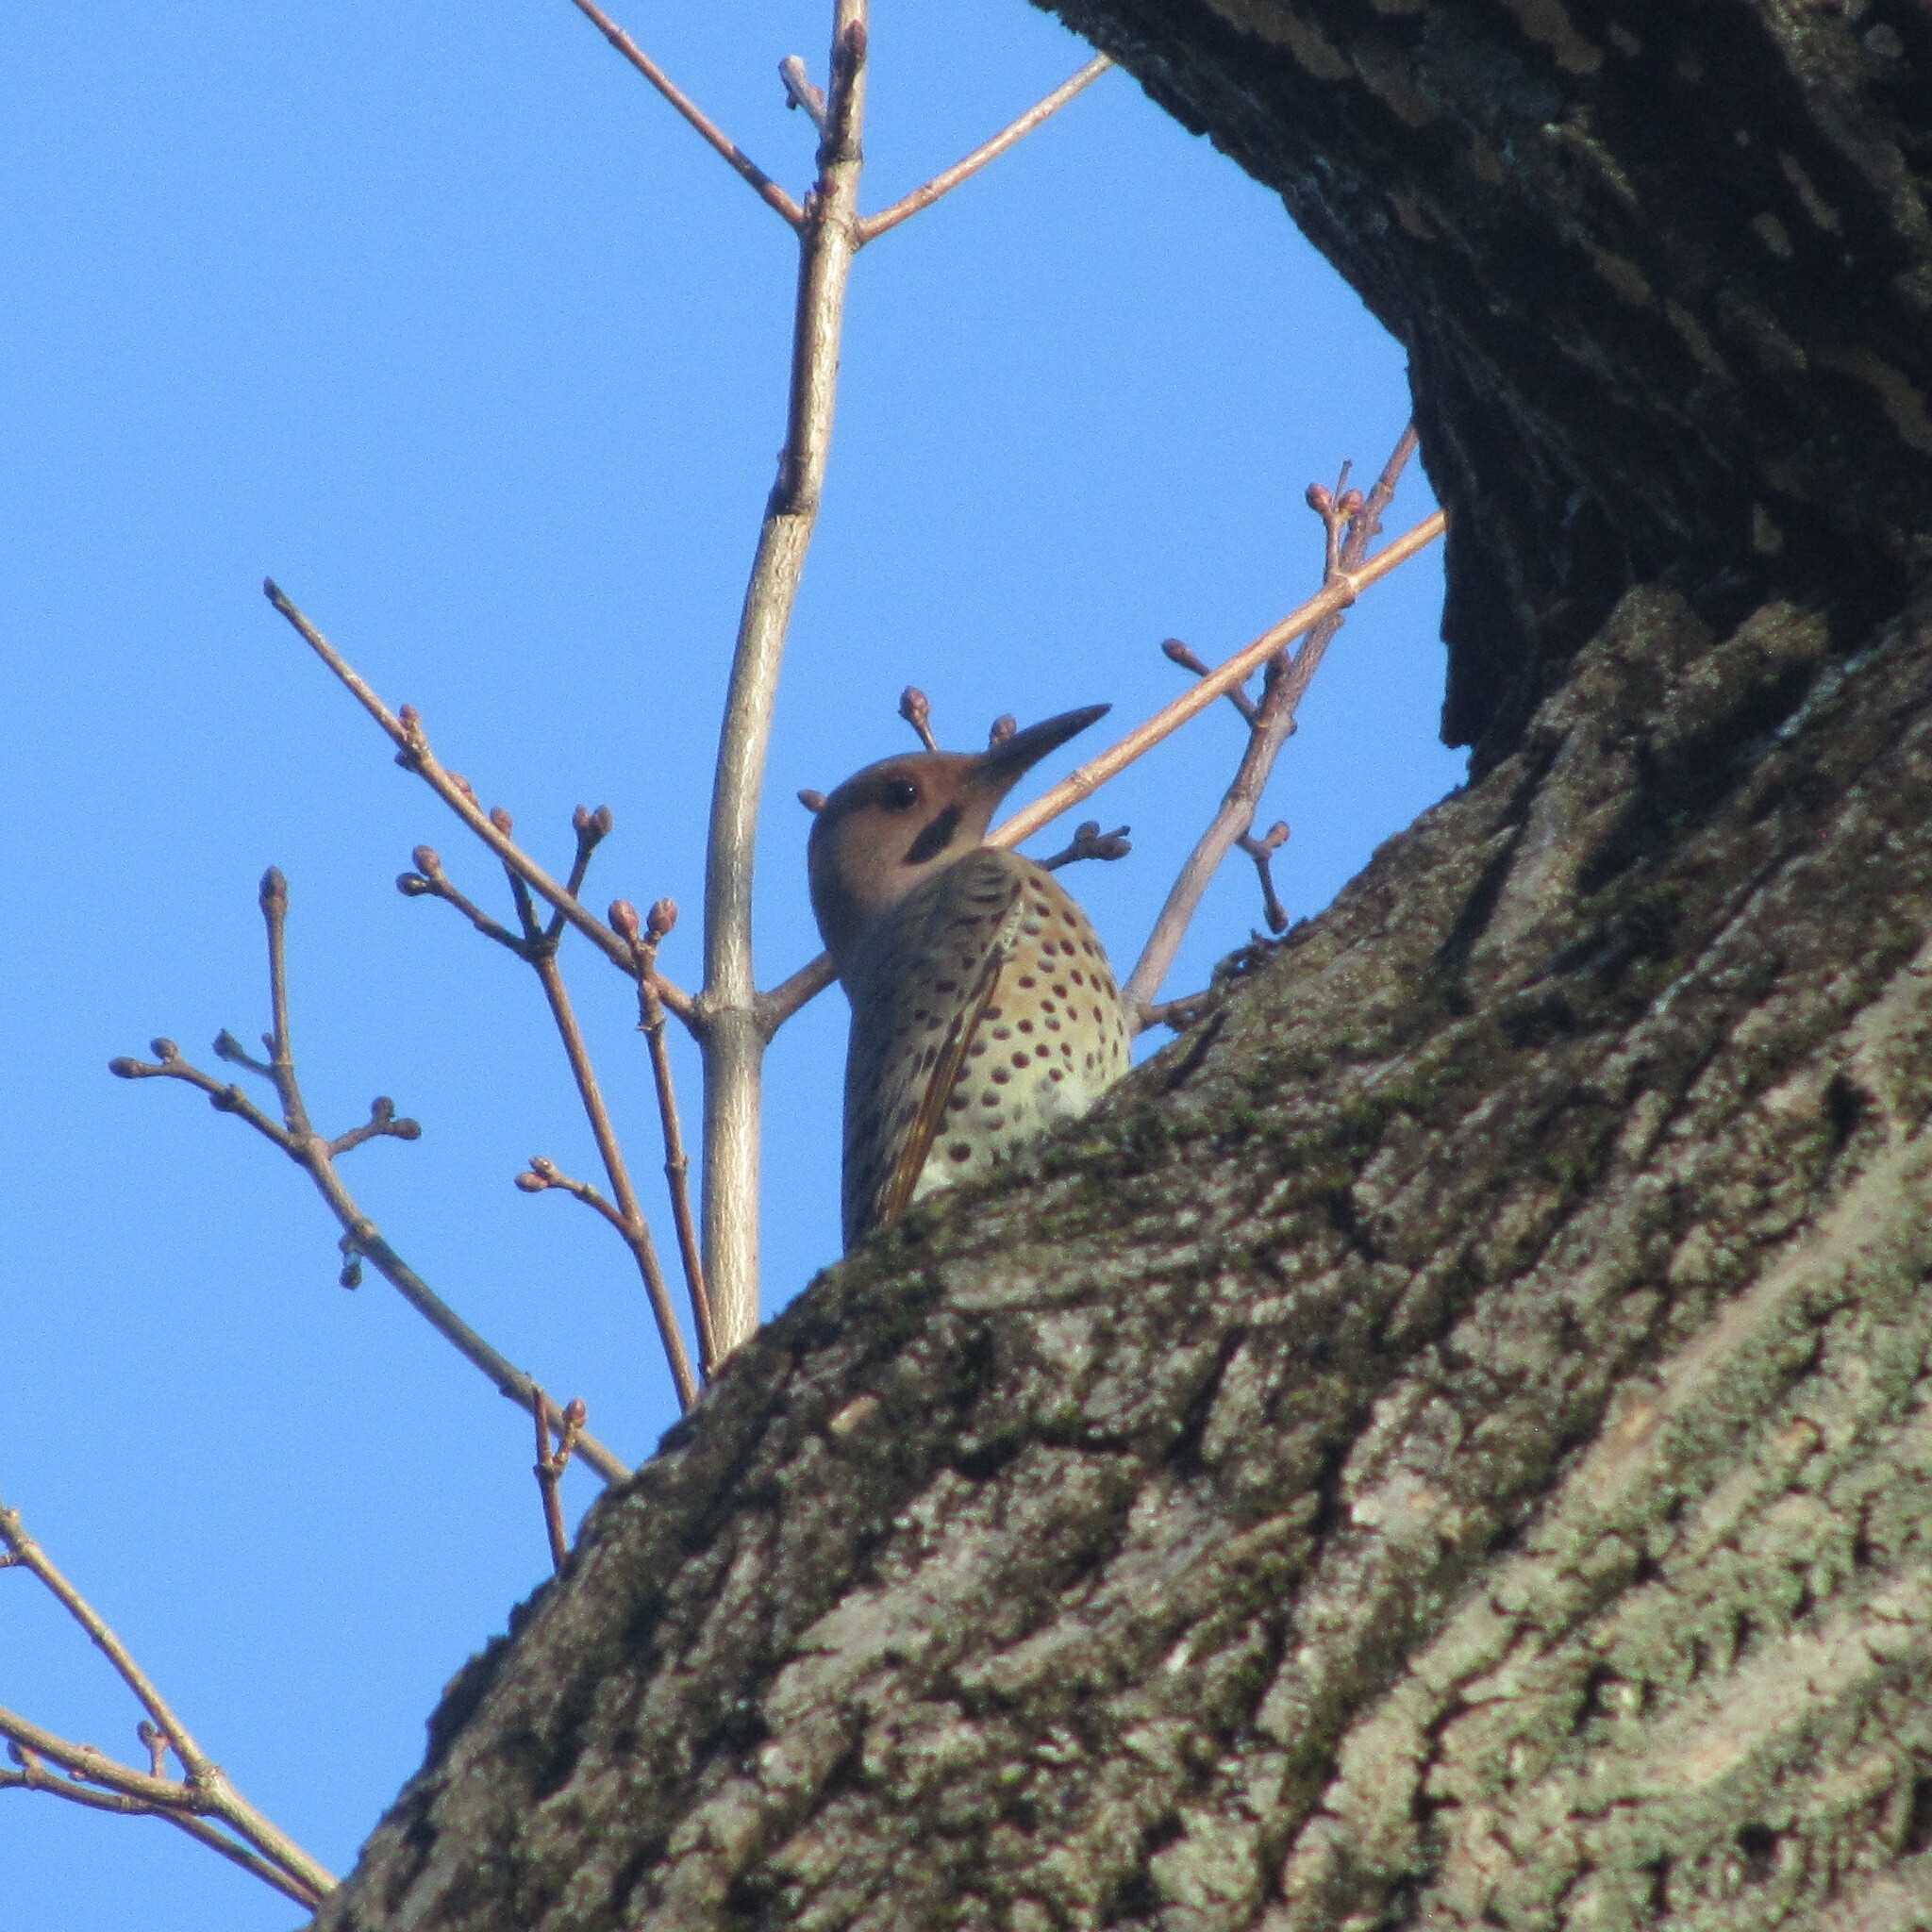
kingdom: Animalia
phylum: Chordata
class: Aves
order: Piciformes
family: Picidae
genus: Colaptes
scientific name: Colaptes auratus
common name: Northern flicker
